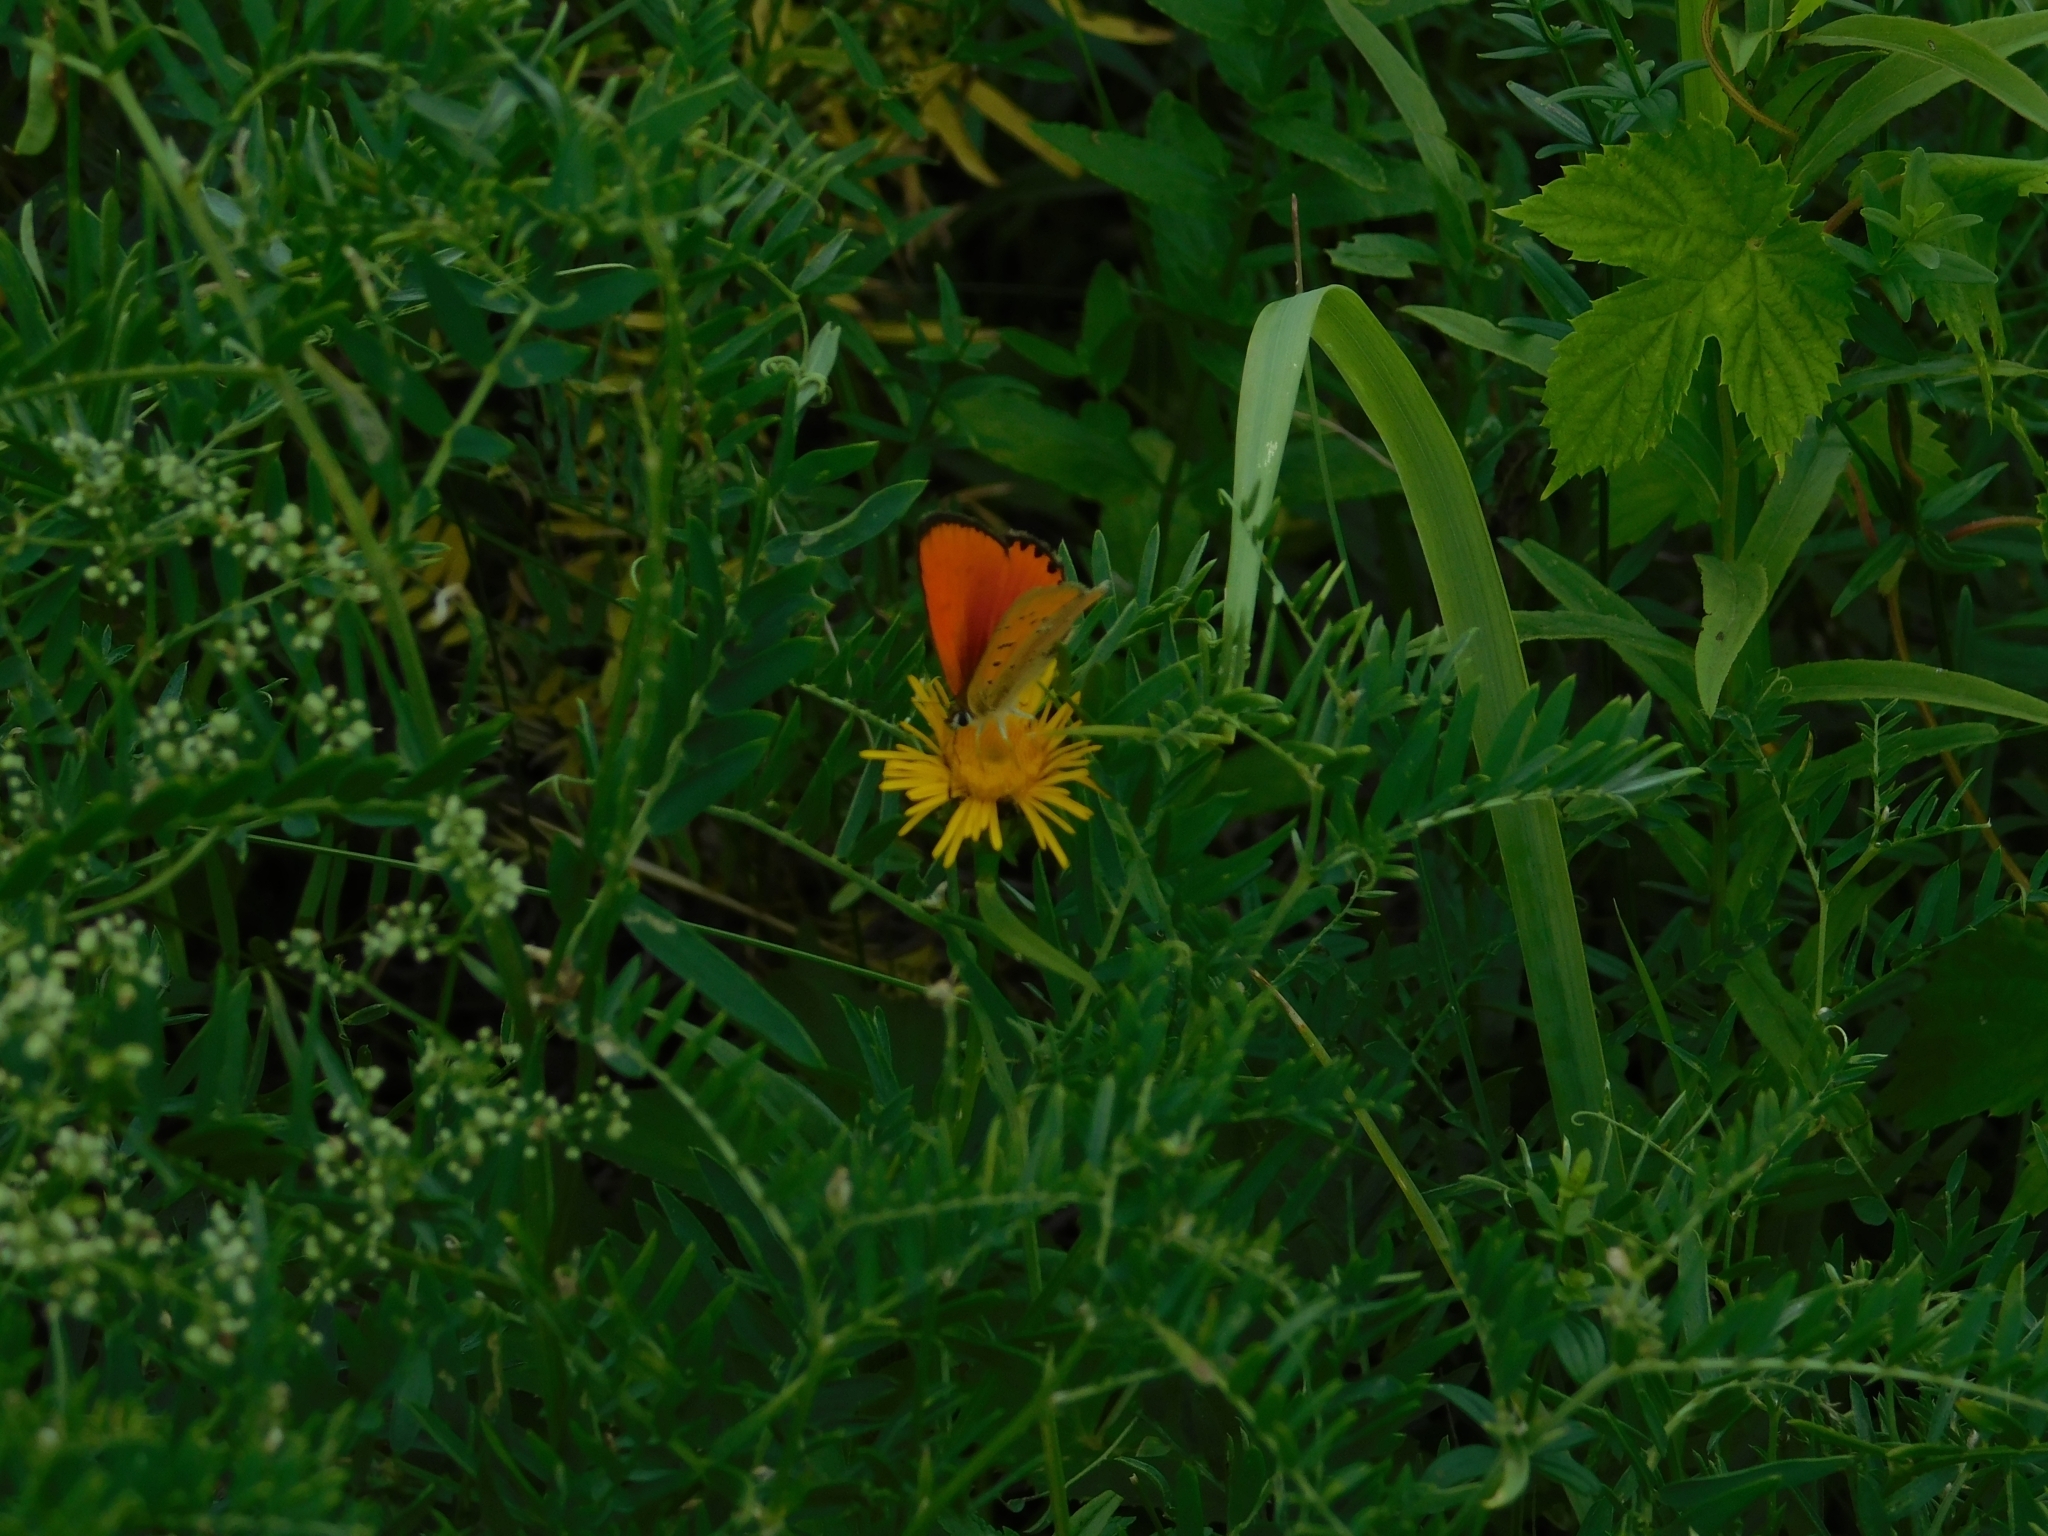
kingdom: Animalia
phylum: Arthropoda
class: Insecta
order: Lepidoptera
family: Lycaenidae
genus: Lycaena
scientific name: Lycaena virgaureae
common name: Scarce copper
